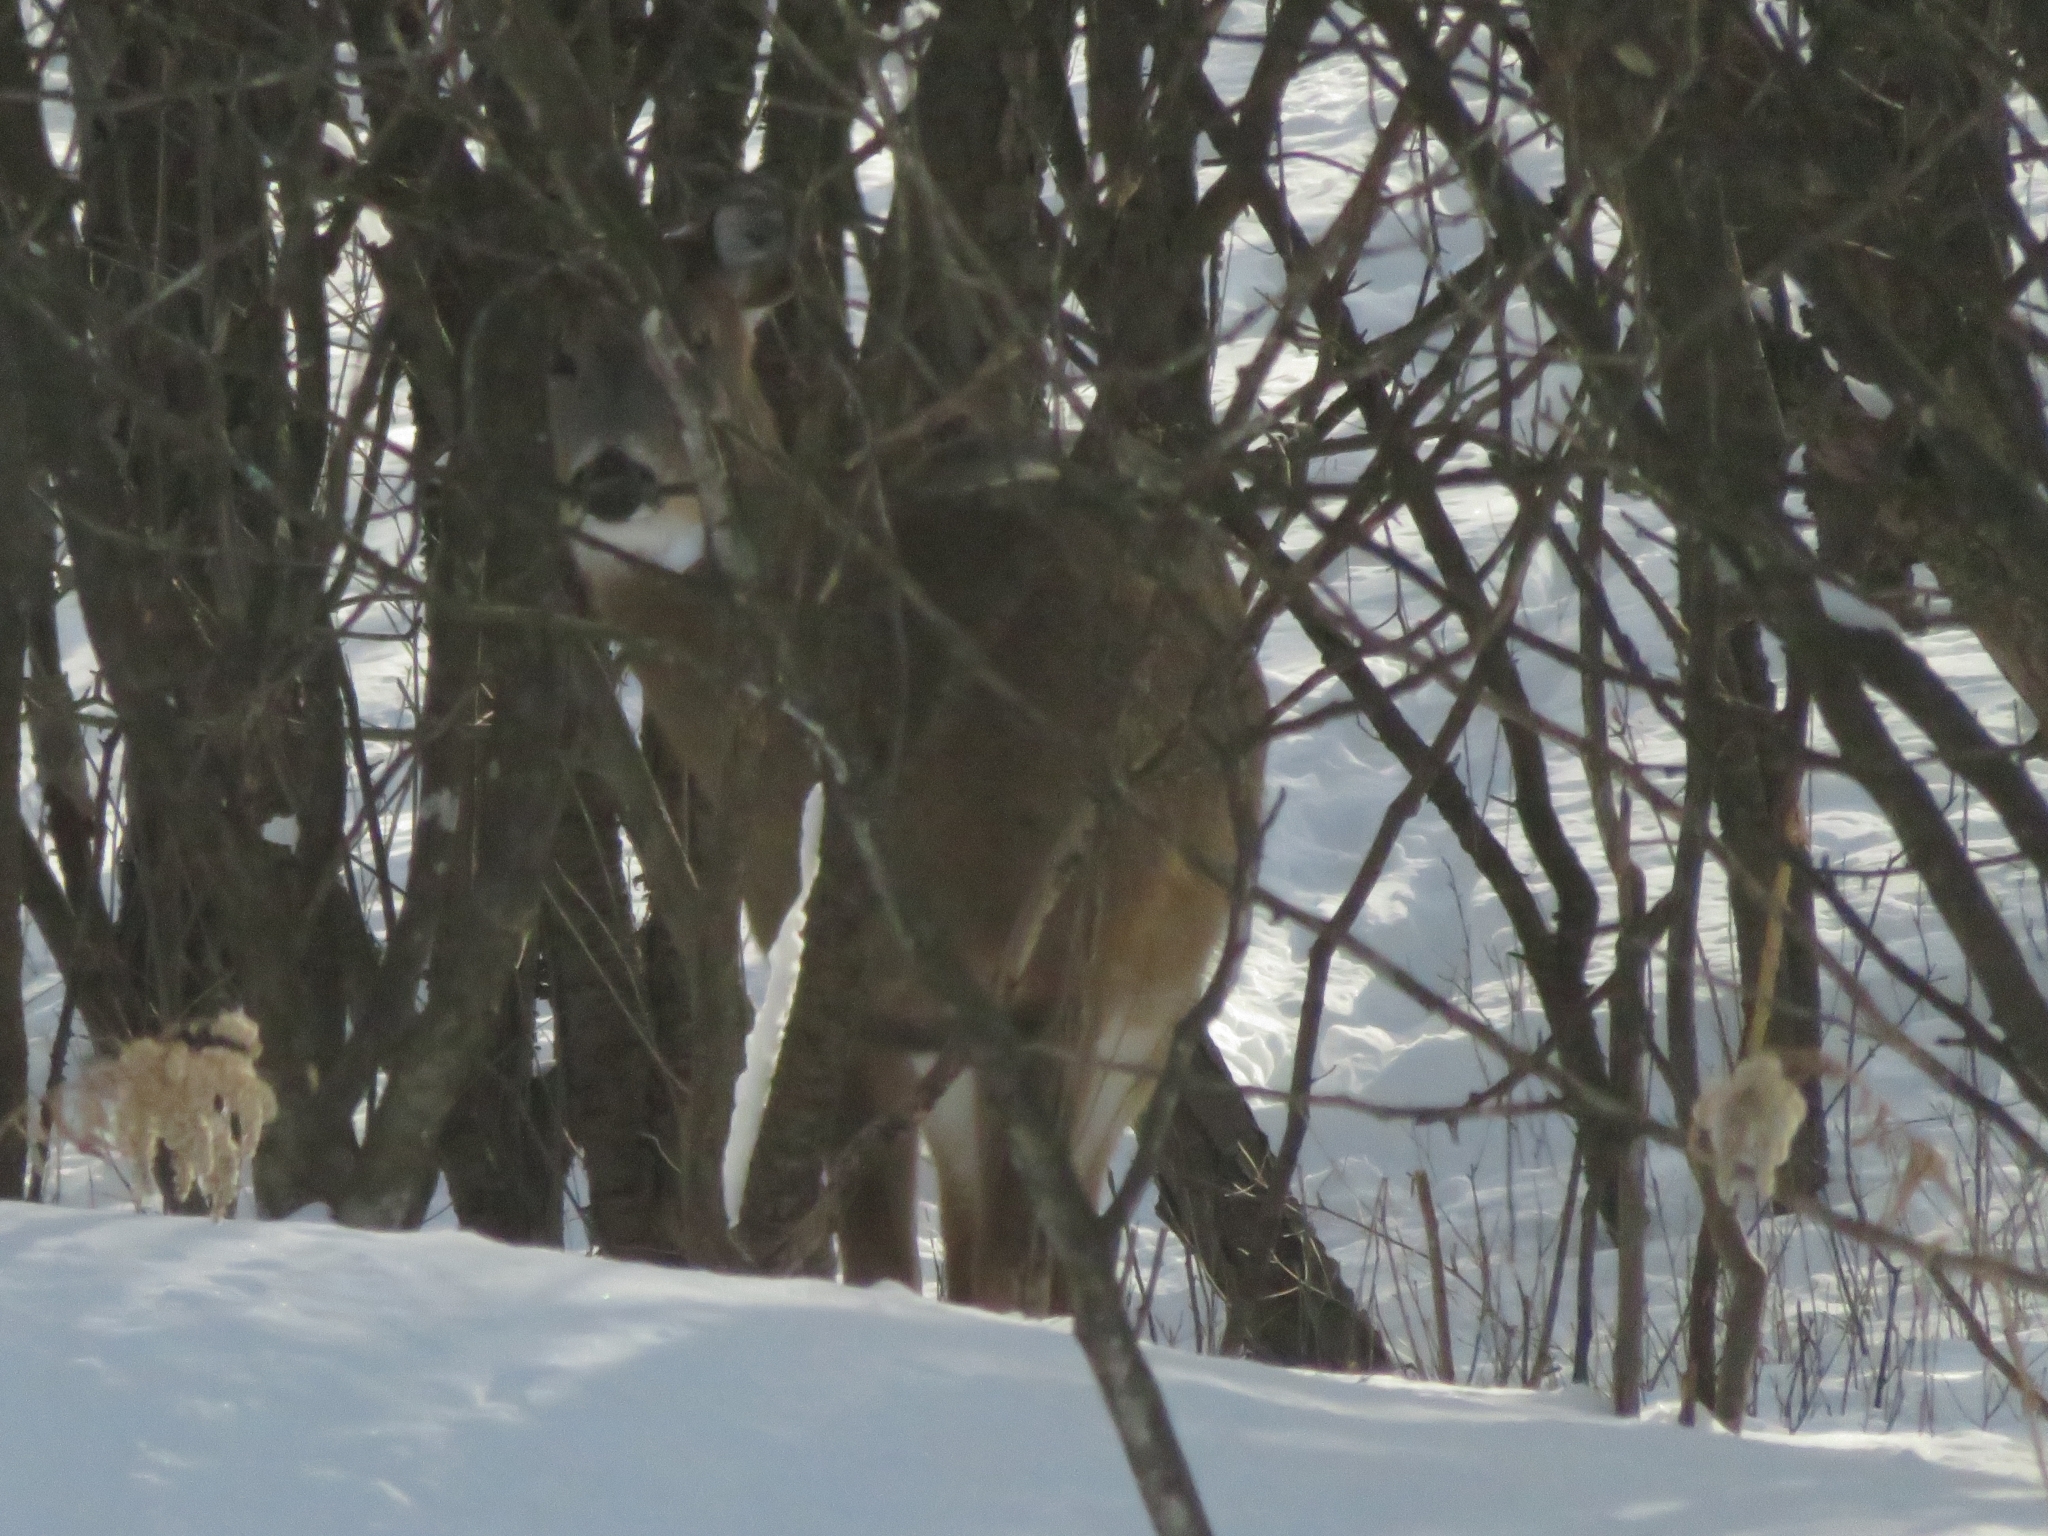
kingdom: Animalia
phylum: Chordata
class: Mammalia
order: Artiodactyla
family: Cervidae
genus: Odocoileus
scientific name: Odocoileus virginianus
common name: White-tailed deer
